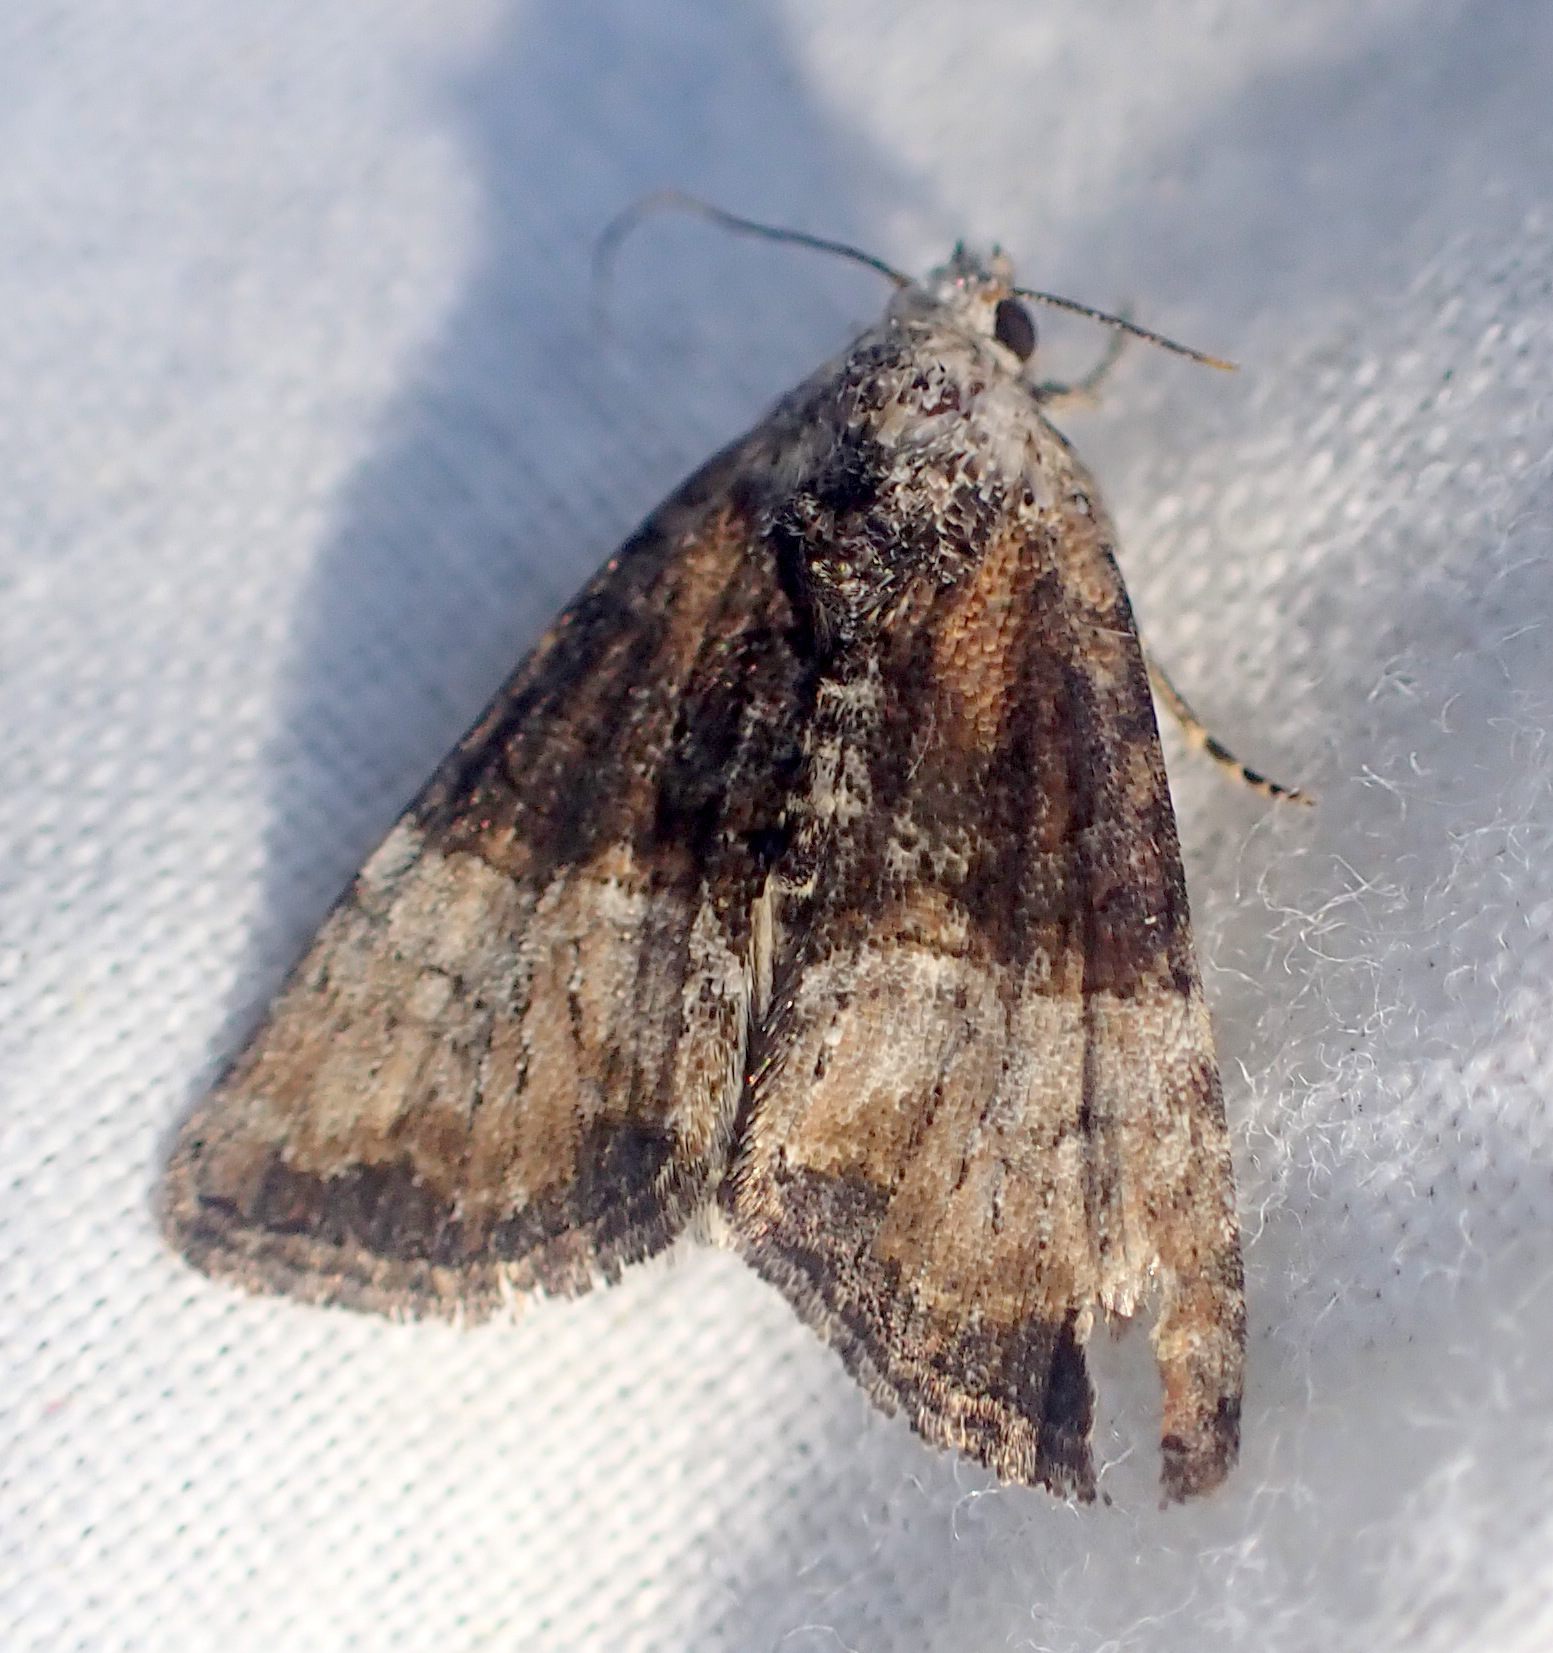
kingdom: Animalia
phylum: Arthropoda
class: Insecta
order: Lepidoptera
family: Noctuidae
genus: Mesoligia
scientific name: Mesoligia furuncula
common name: Cloaked minor
